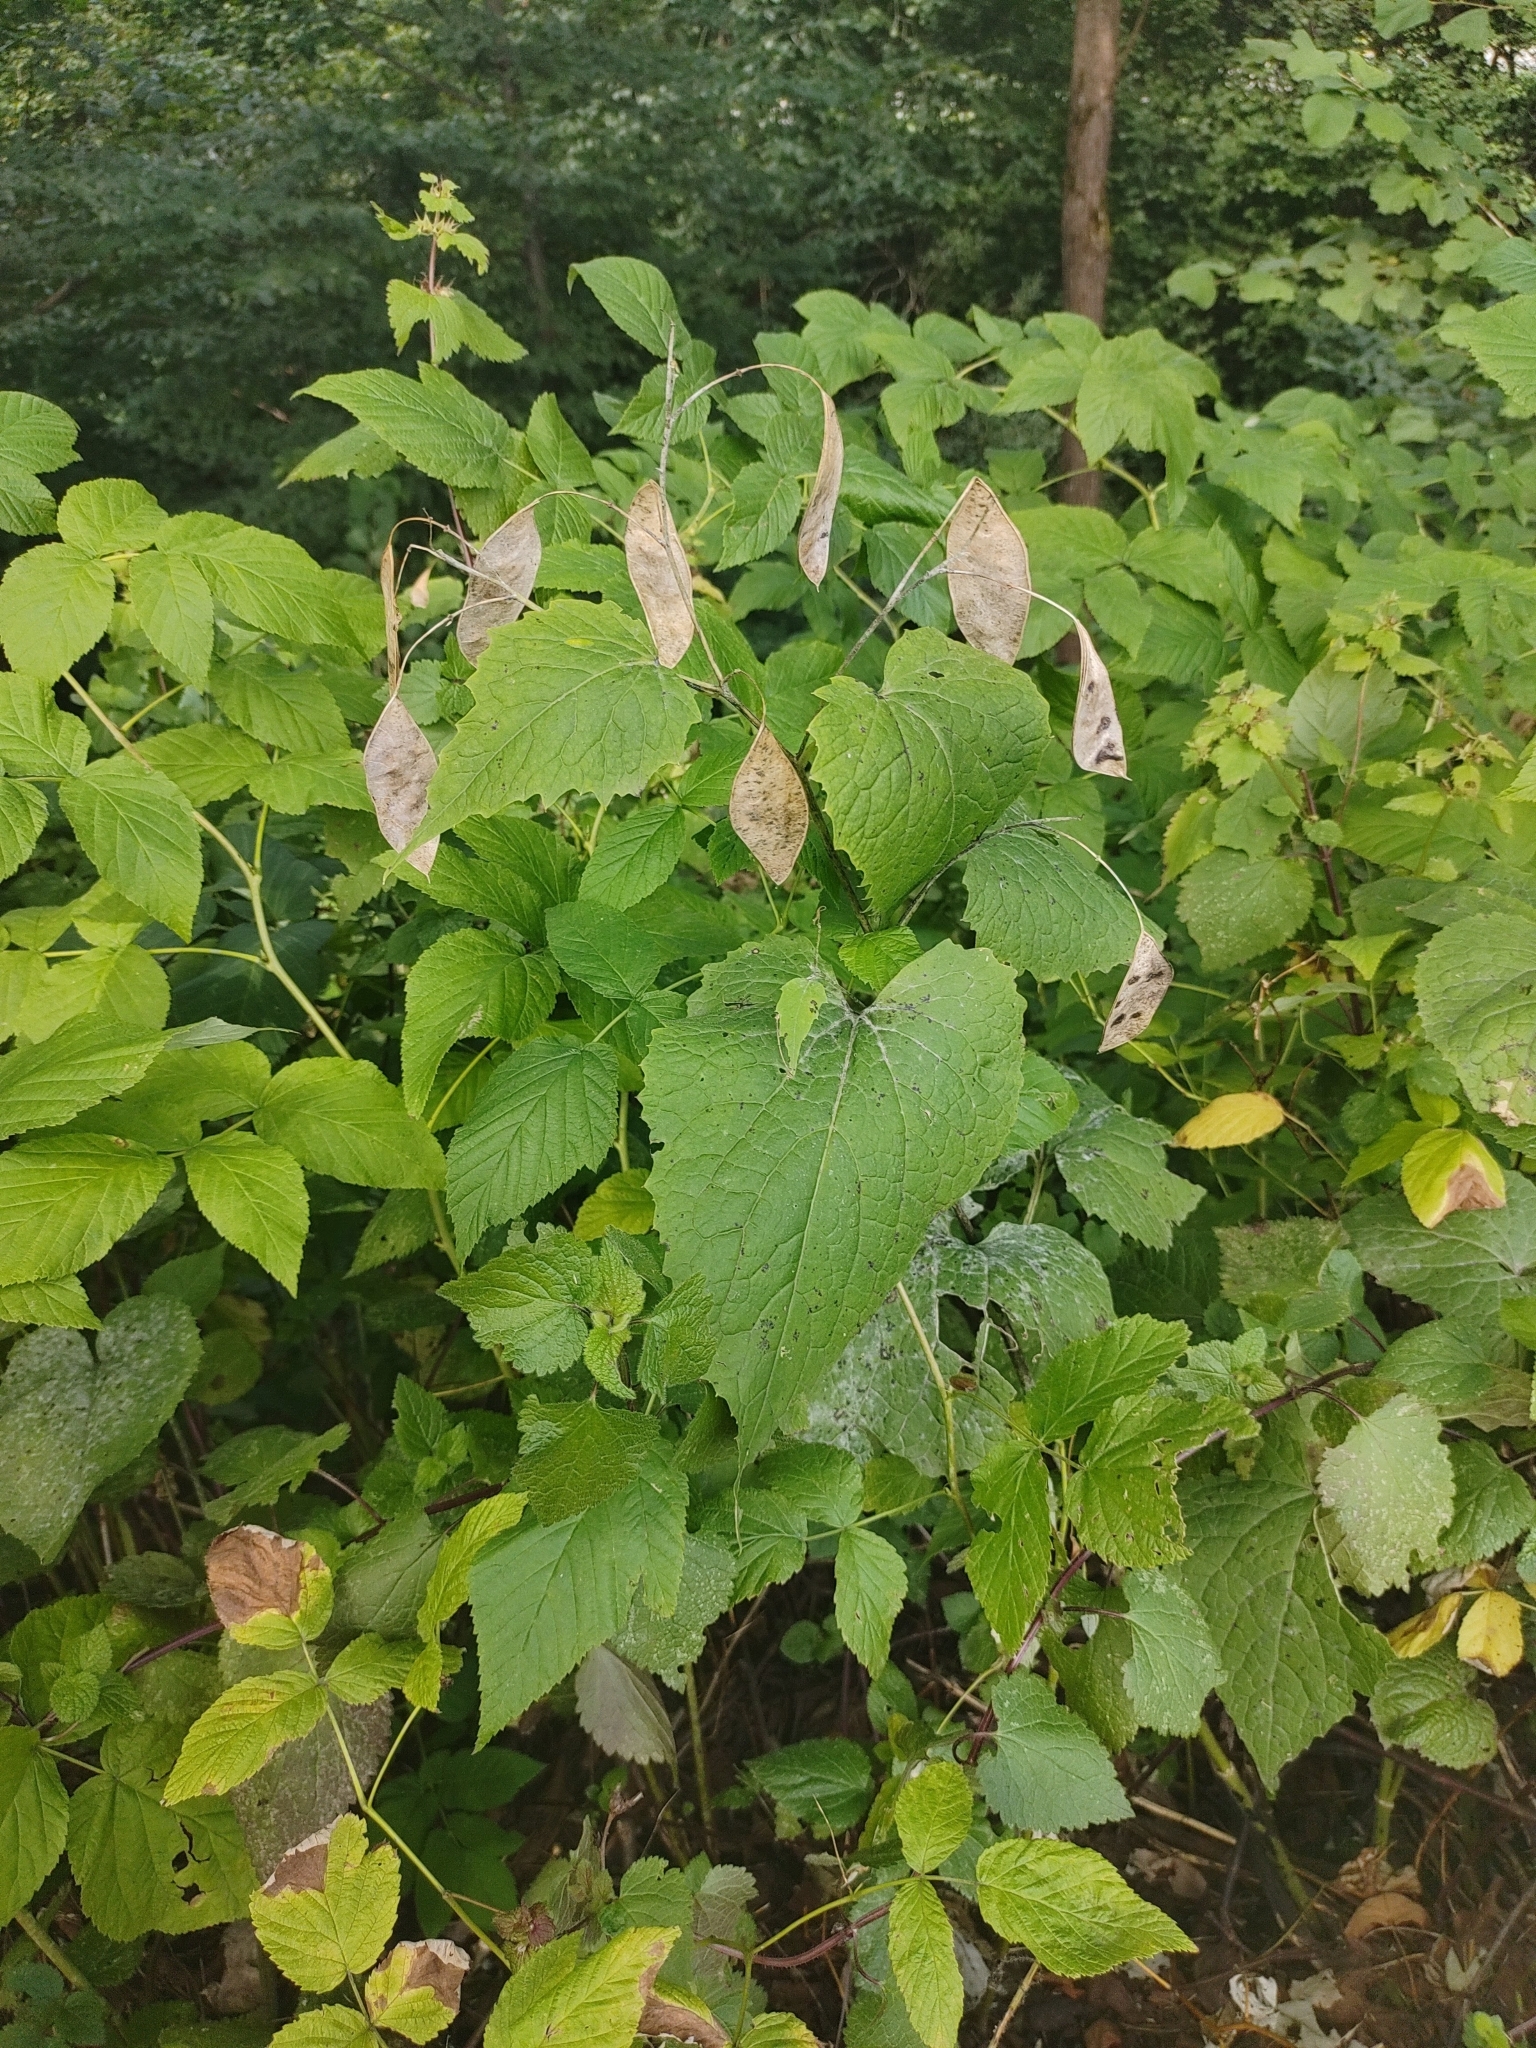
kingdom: Plantae
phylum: Tracheophyta
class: Magnoliopsida
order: Brassicales
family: Brassicaceae
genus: Lunaria
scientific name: Lunaria rediviva
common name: Perennial honesty
